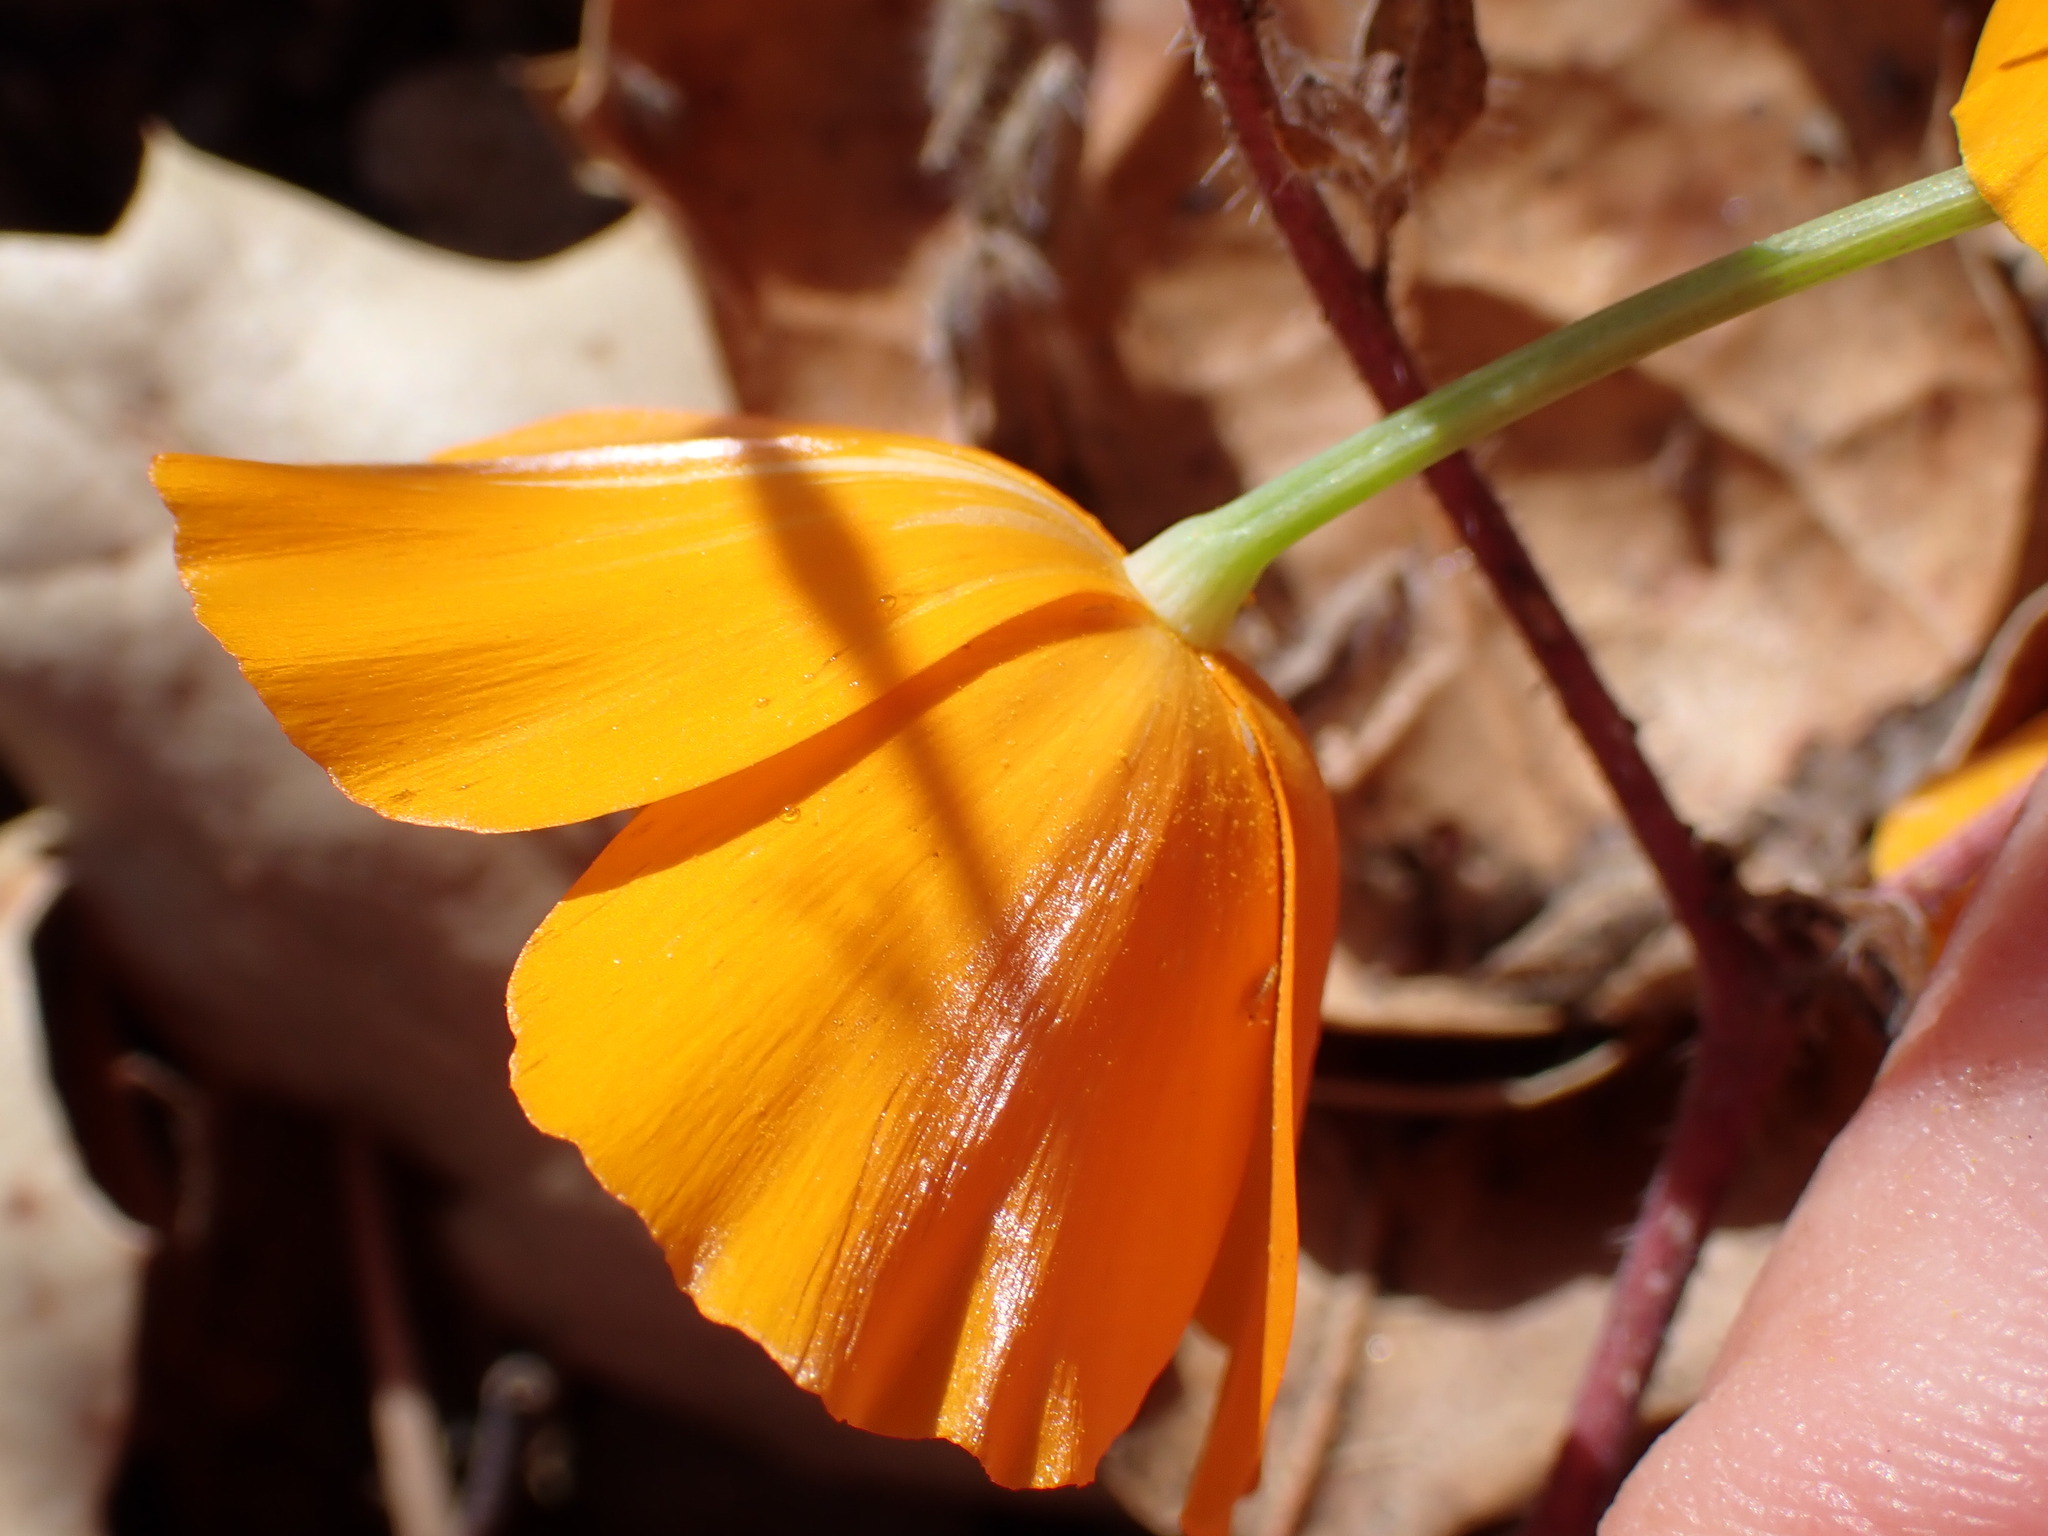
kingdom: Plantae
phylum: Tracheophyta
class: Magnoliopsida
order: Ranunculales
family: Papaveraceae
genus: Eschscholzia
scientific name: Eschscholzia caespitosa
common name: Tufted california-poppy
